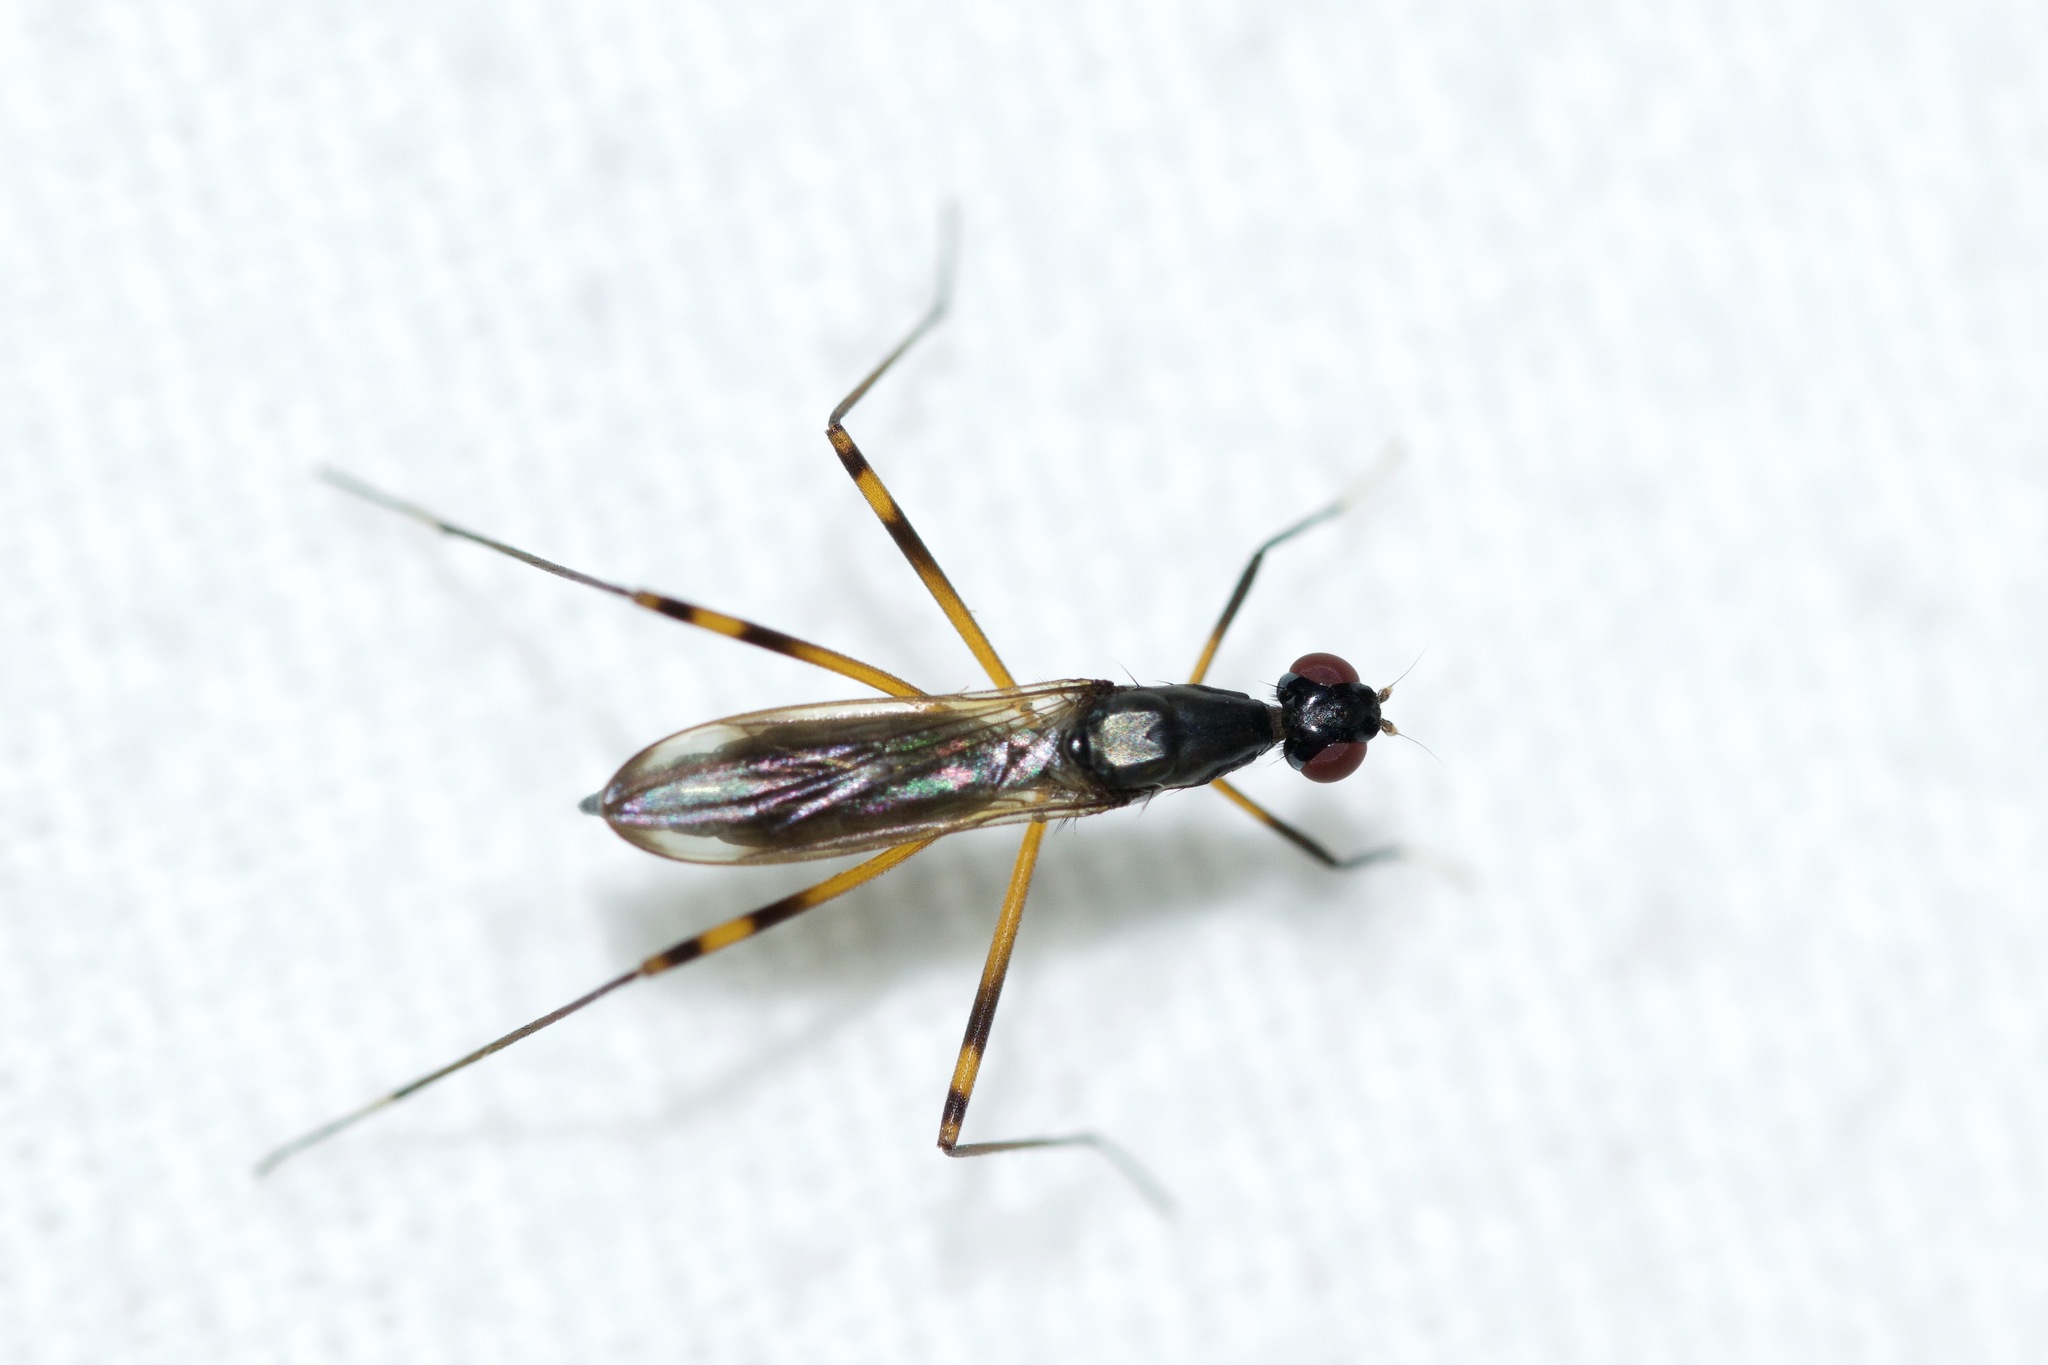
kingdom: Animalia
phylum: Arthropoda
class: Insecta
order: Diptera
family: Micropezidae
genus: Rainieria
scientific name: Rainieria antennaepes
